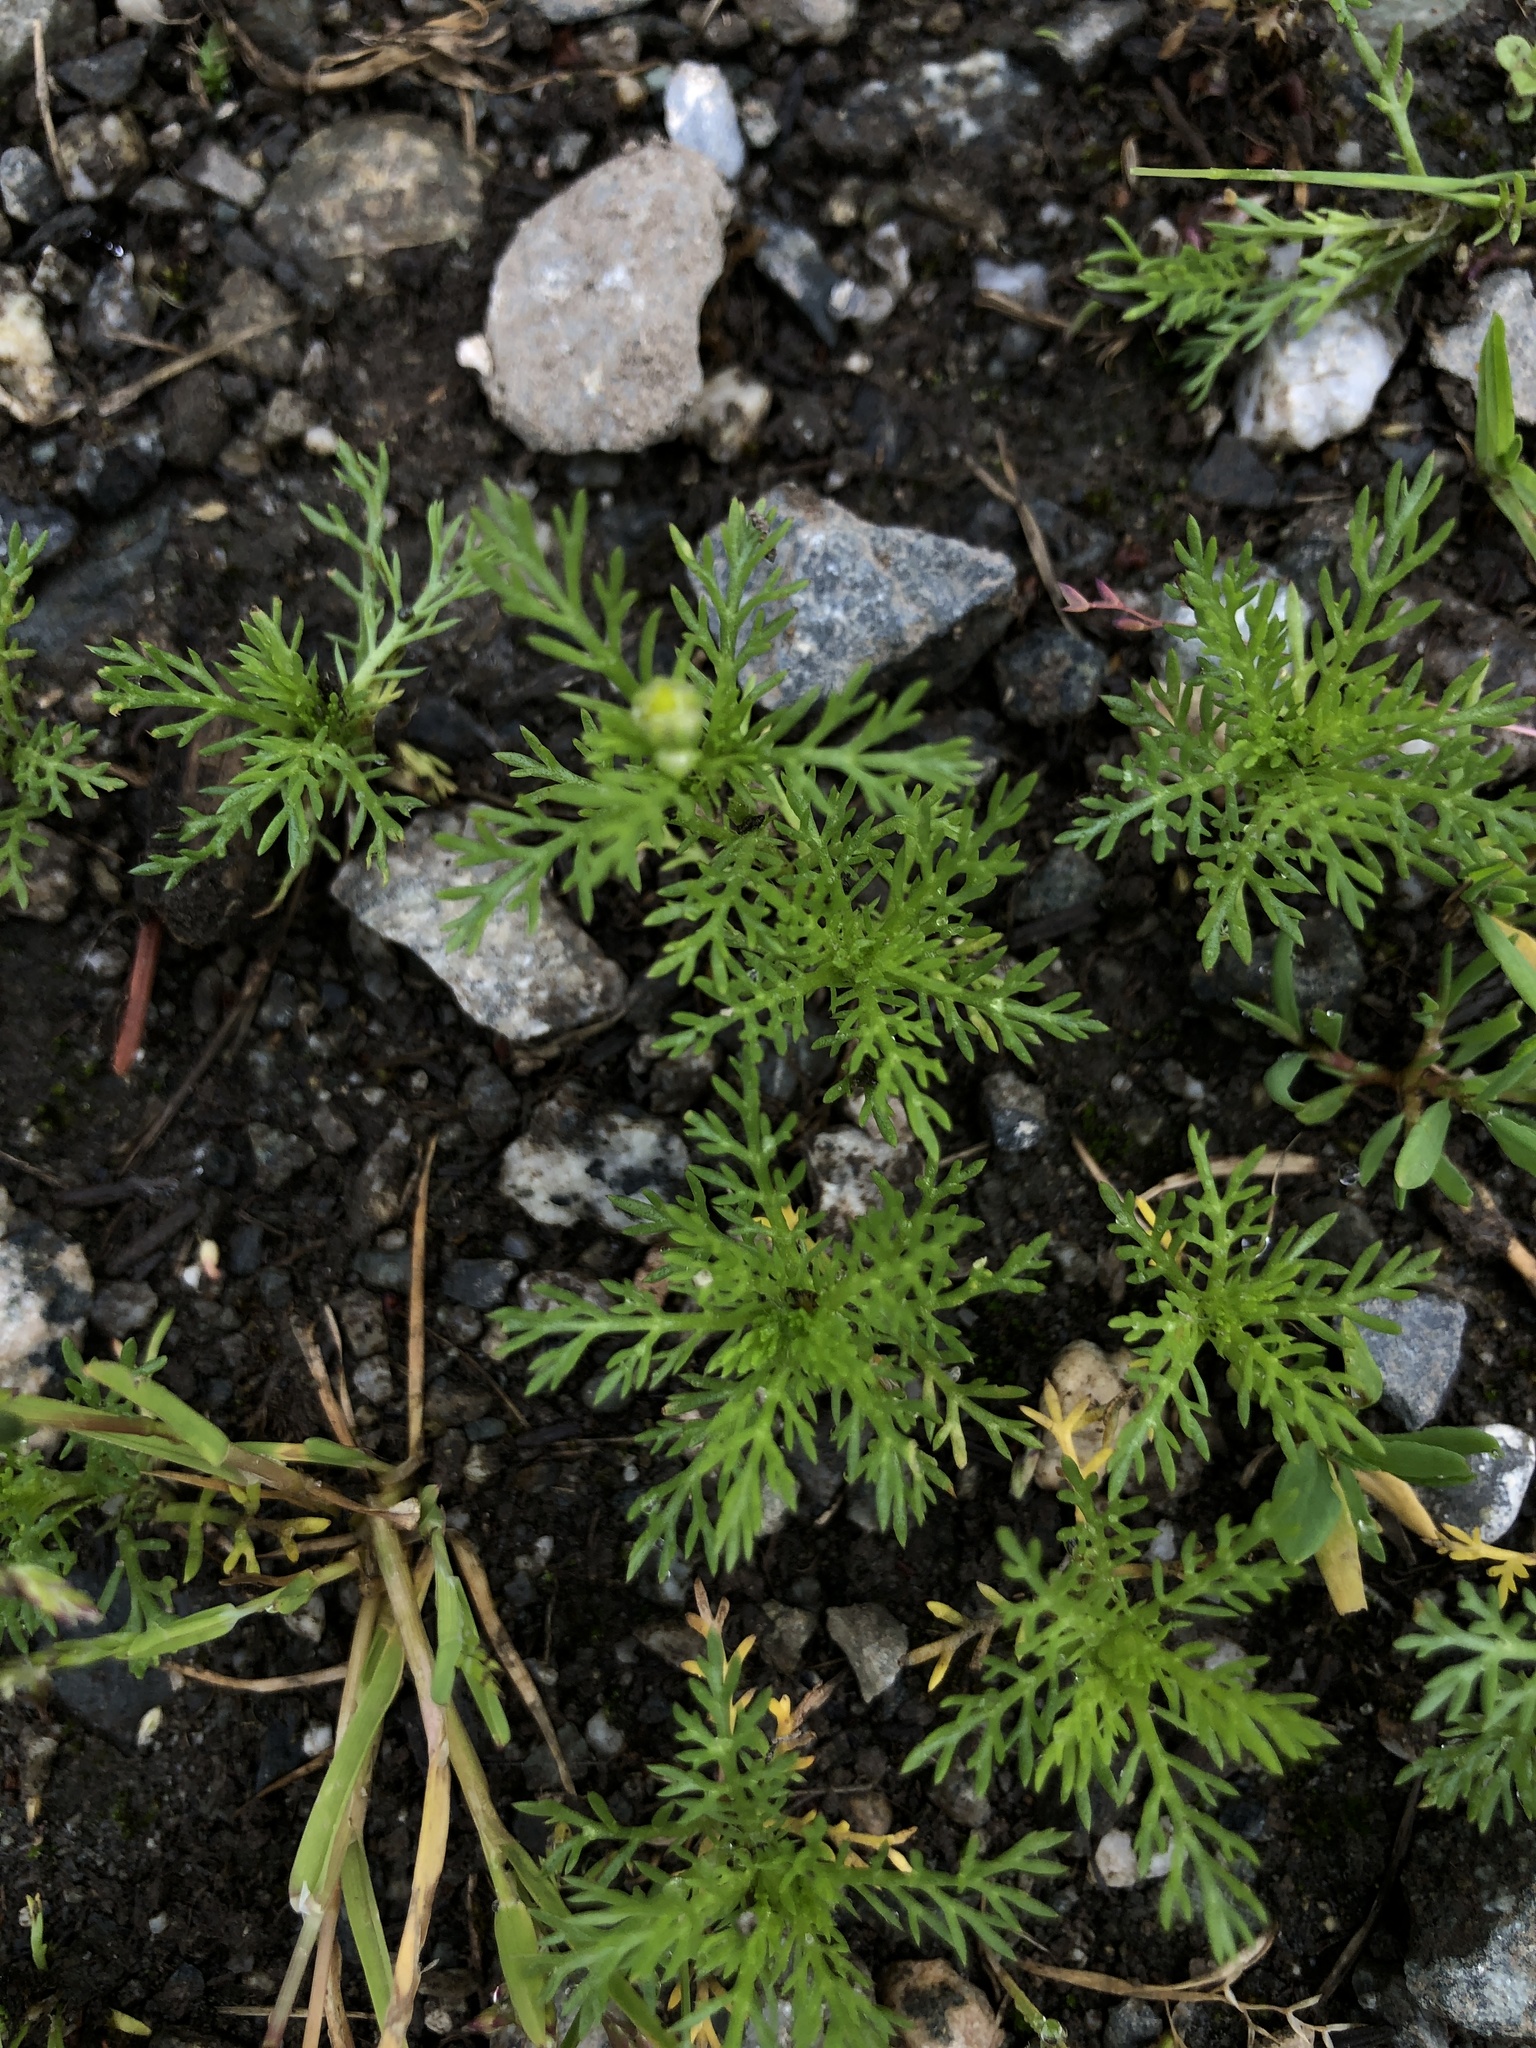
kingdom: Plantae
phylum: Tracheophyta
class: Magnoliopsida
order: Asterales
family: Asteraceae
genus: Matricaria
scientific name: Matricaria discoidea
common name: Disc mayweed
